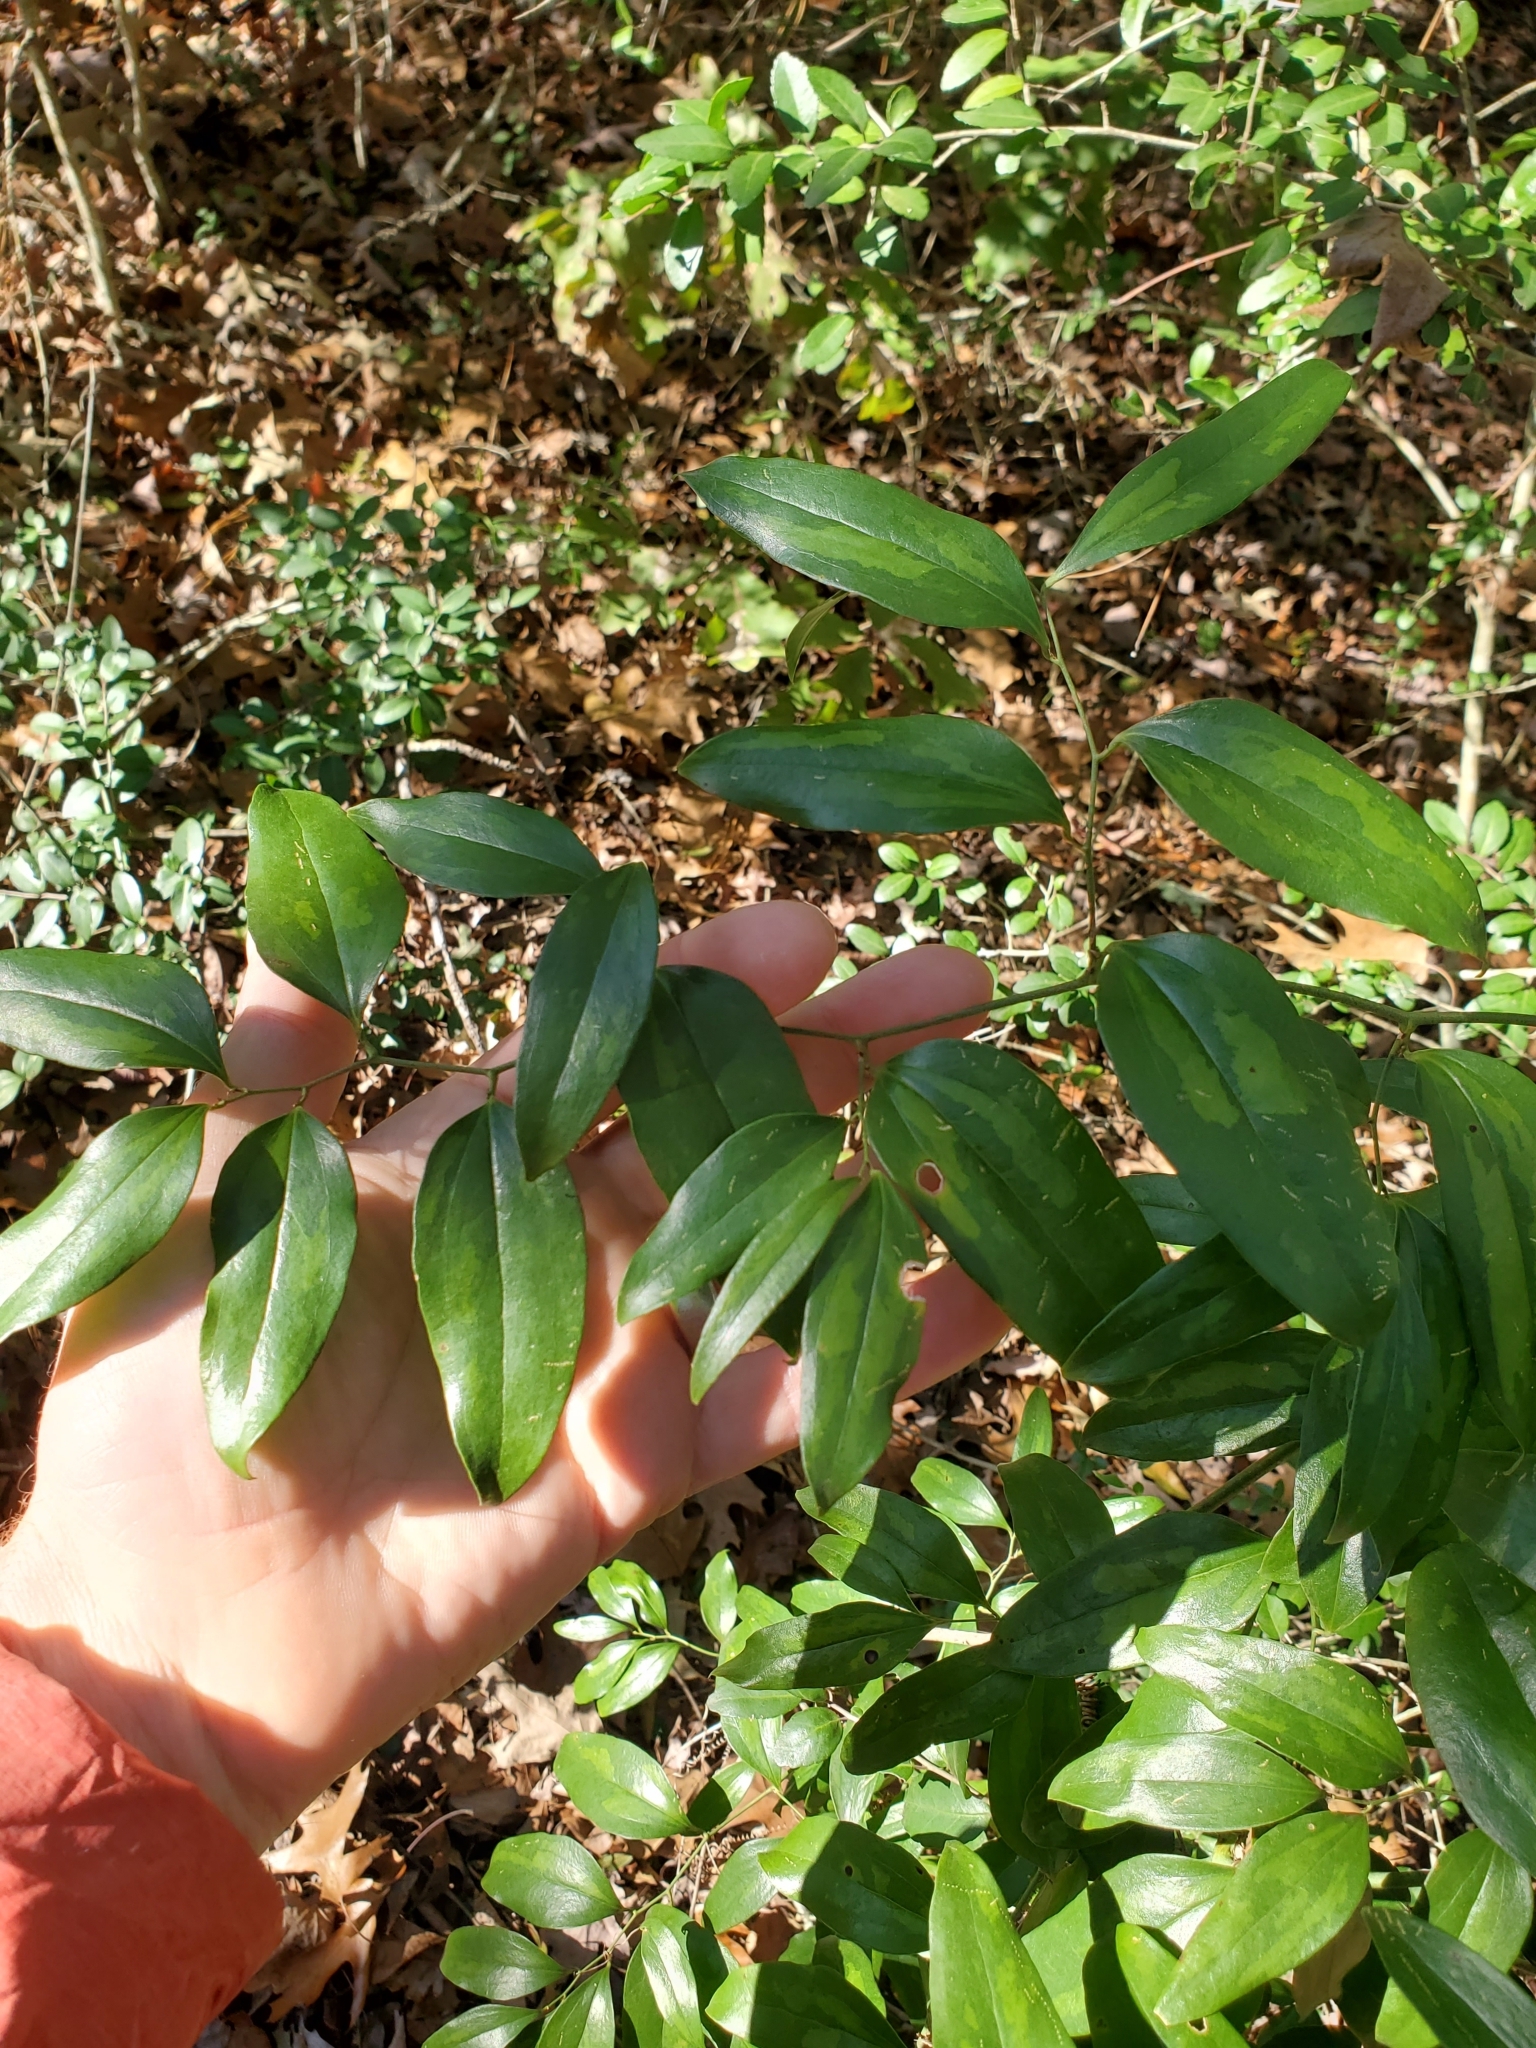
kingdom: Plantae
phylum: Tracheophyta
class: Liliopsida
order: Liliales
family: Smilacaceae
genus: Smilax
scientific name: Smilax maritima
